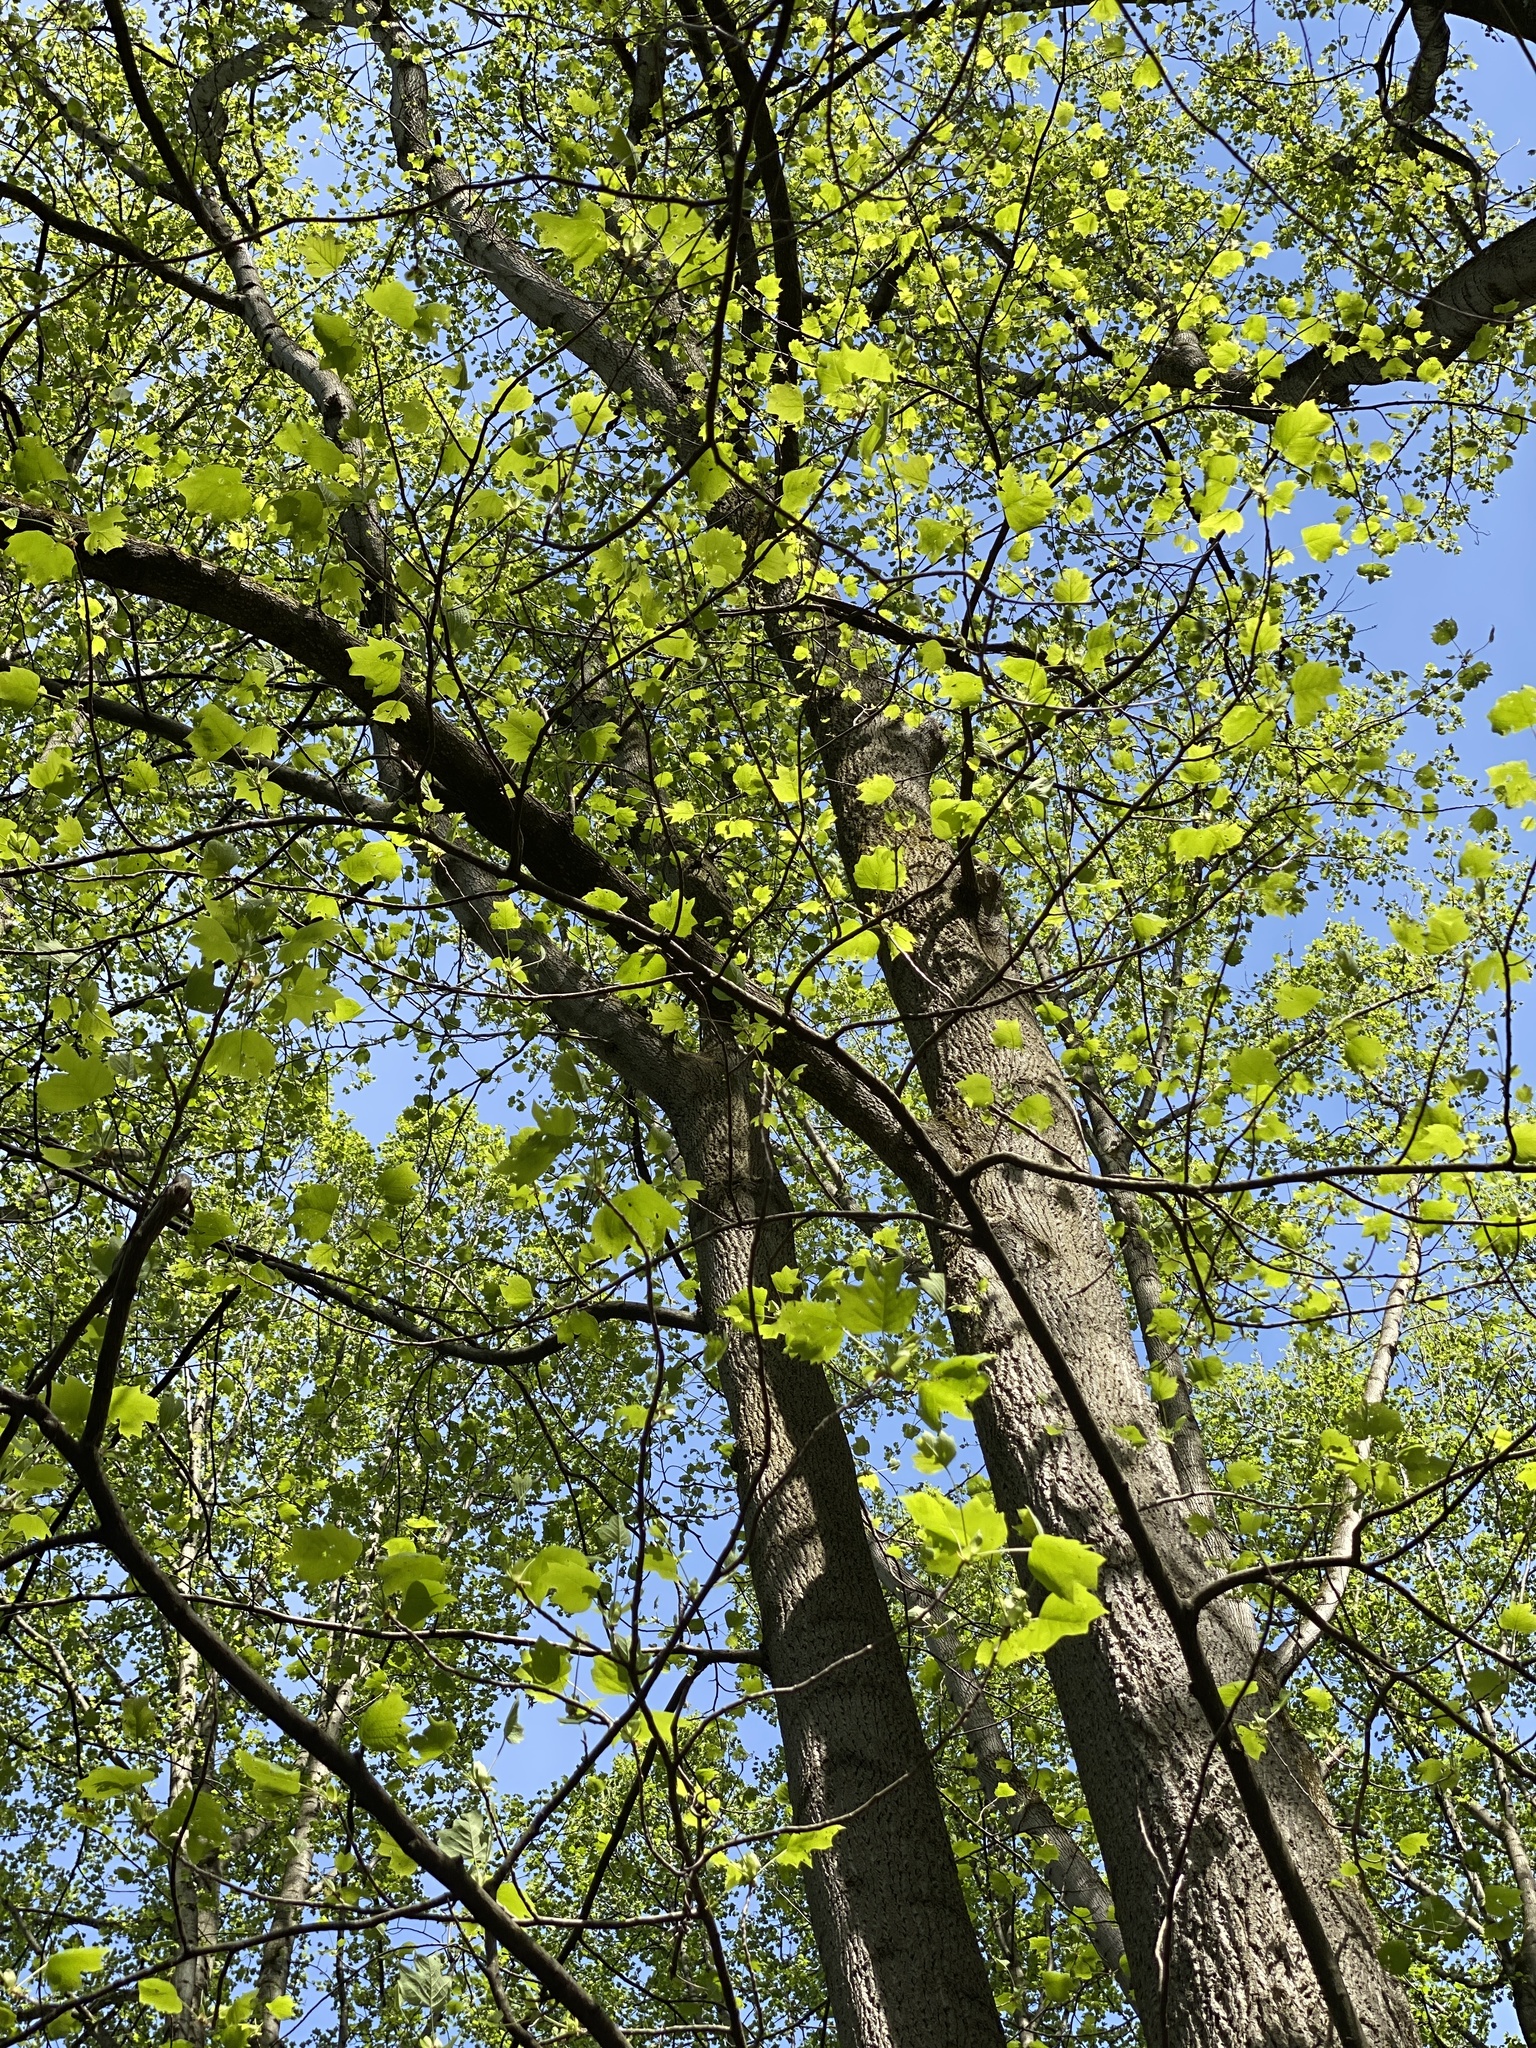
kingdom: Plantae
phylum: Tracheophyta
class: Magnoliopsida
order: Magnoliales
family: Magnoliaceae
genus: Liriodendron
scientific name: Liriodendron tulipifera
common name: Tulip tree
